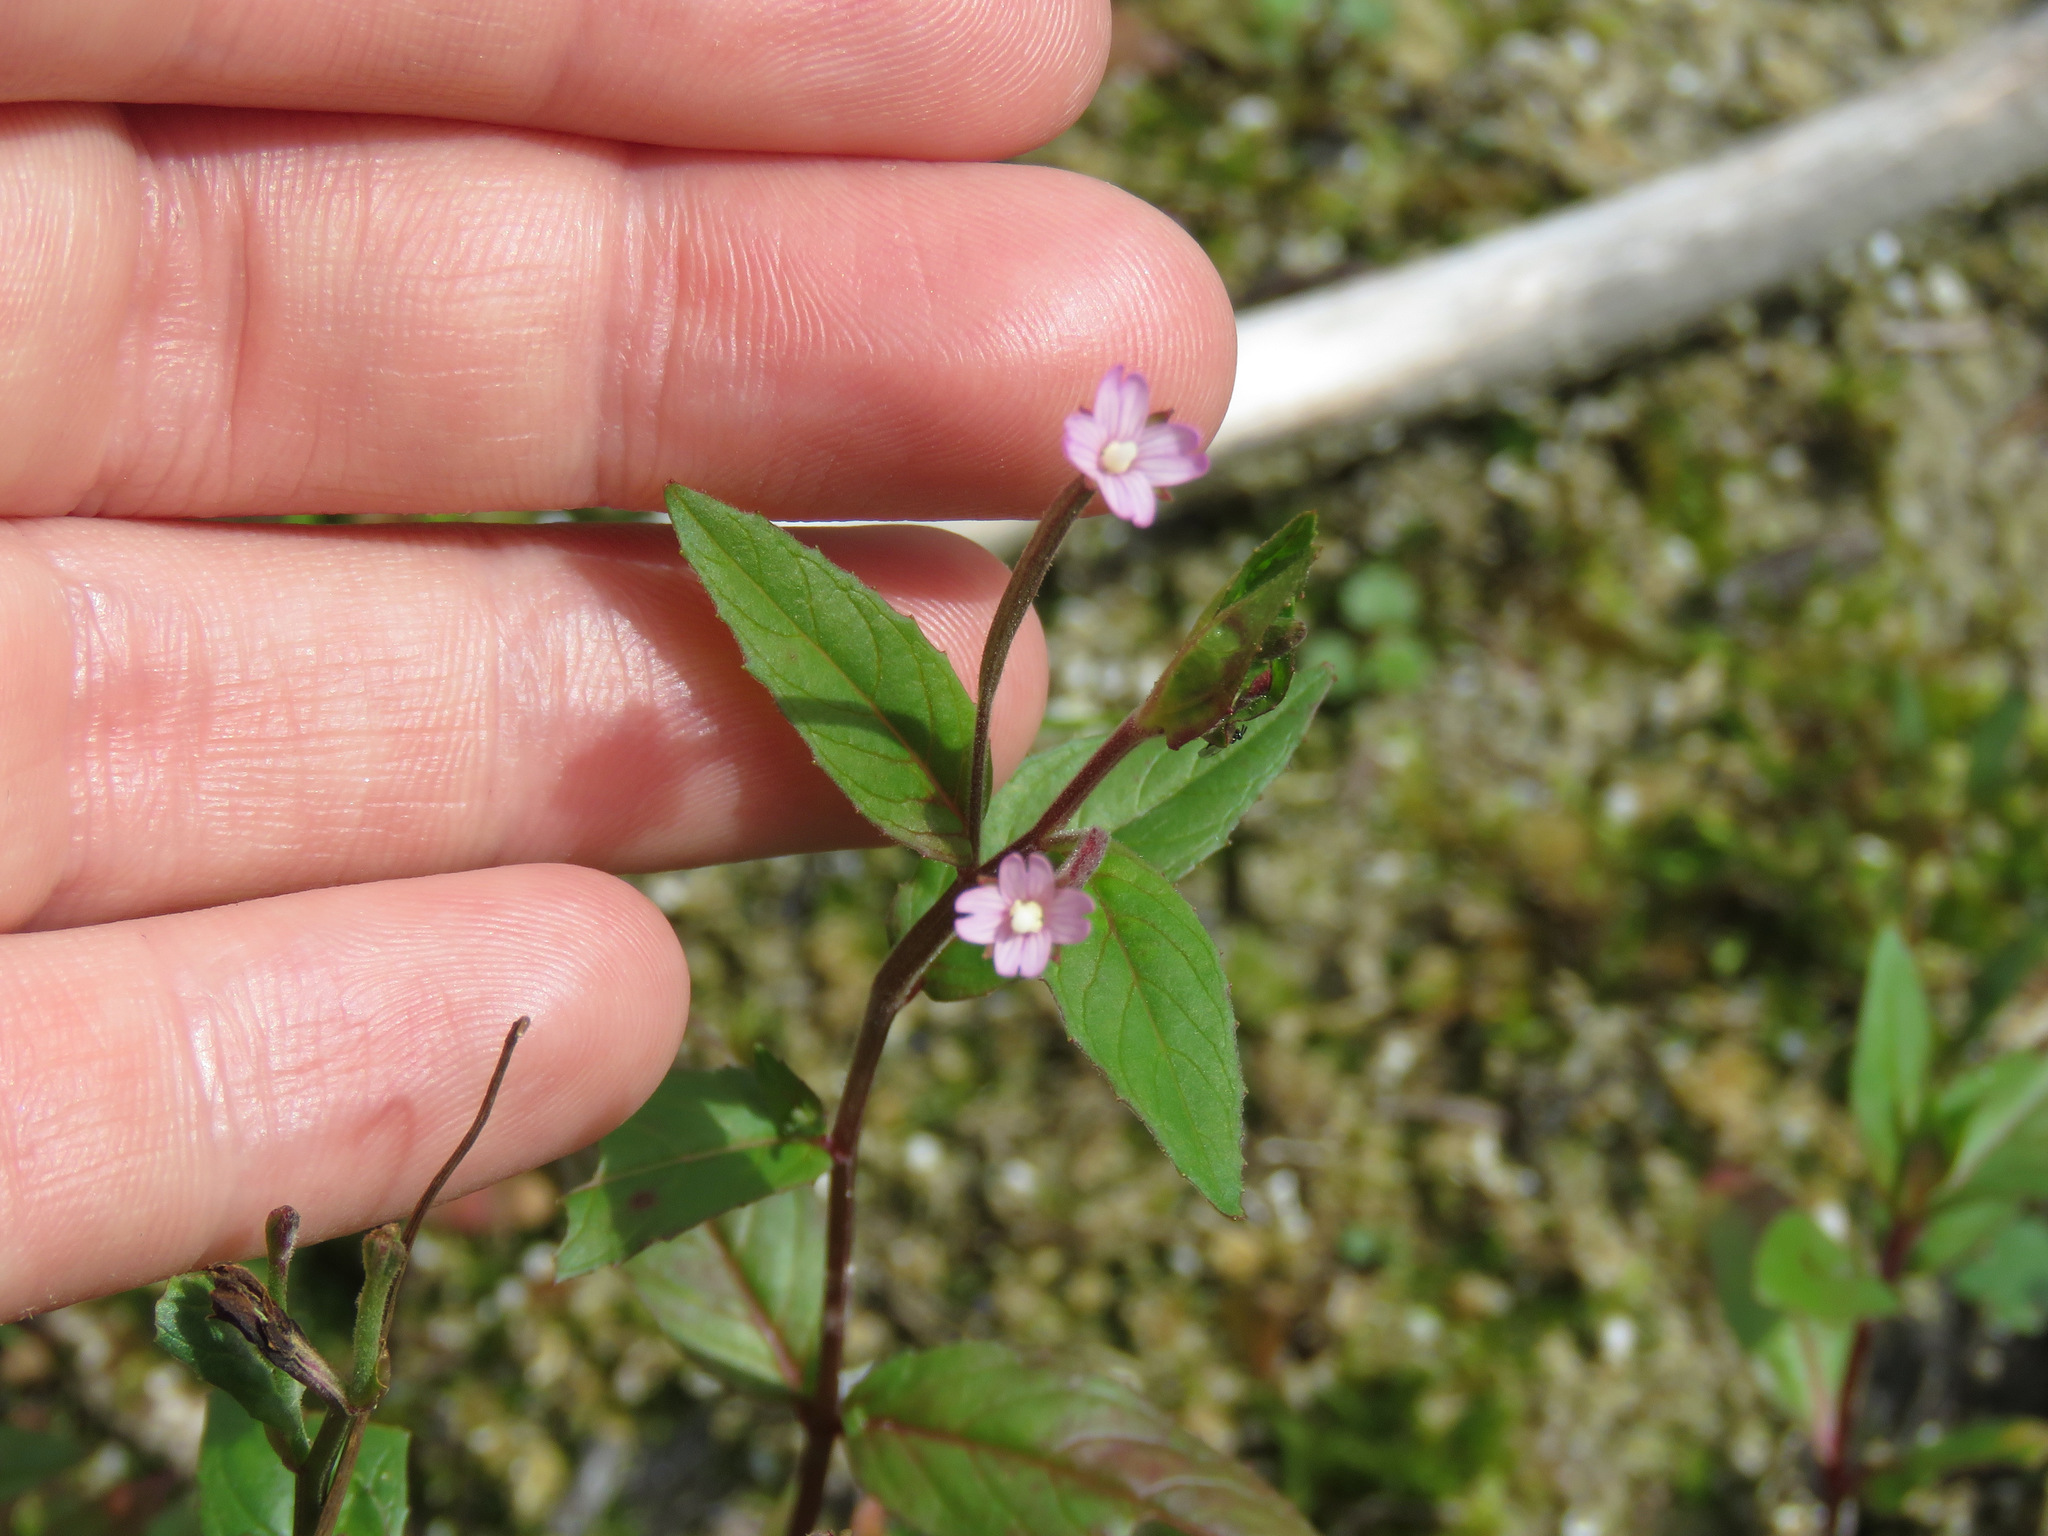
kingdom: Plantae
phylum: Tracheophyta
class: Magnoliopsida
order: Myrtales
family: Onagraceae
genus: Epilobium
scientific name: Epilobium ciliatum
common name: American willowherb
